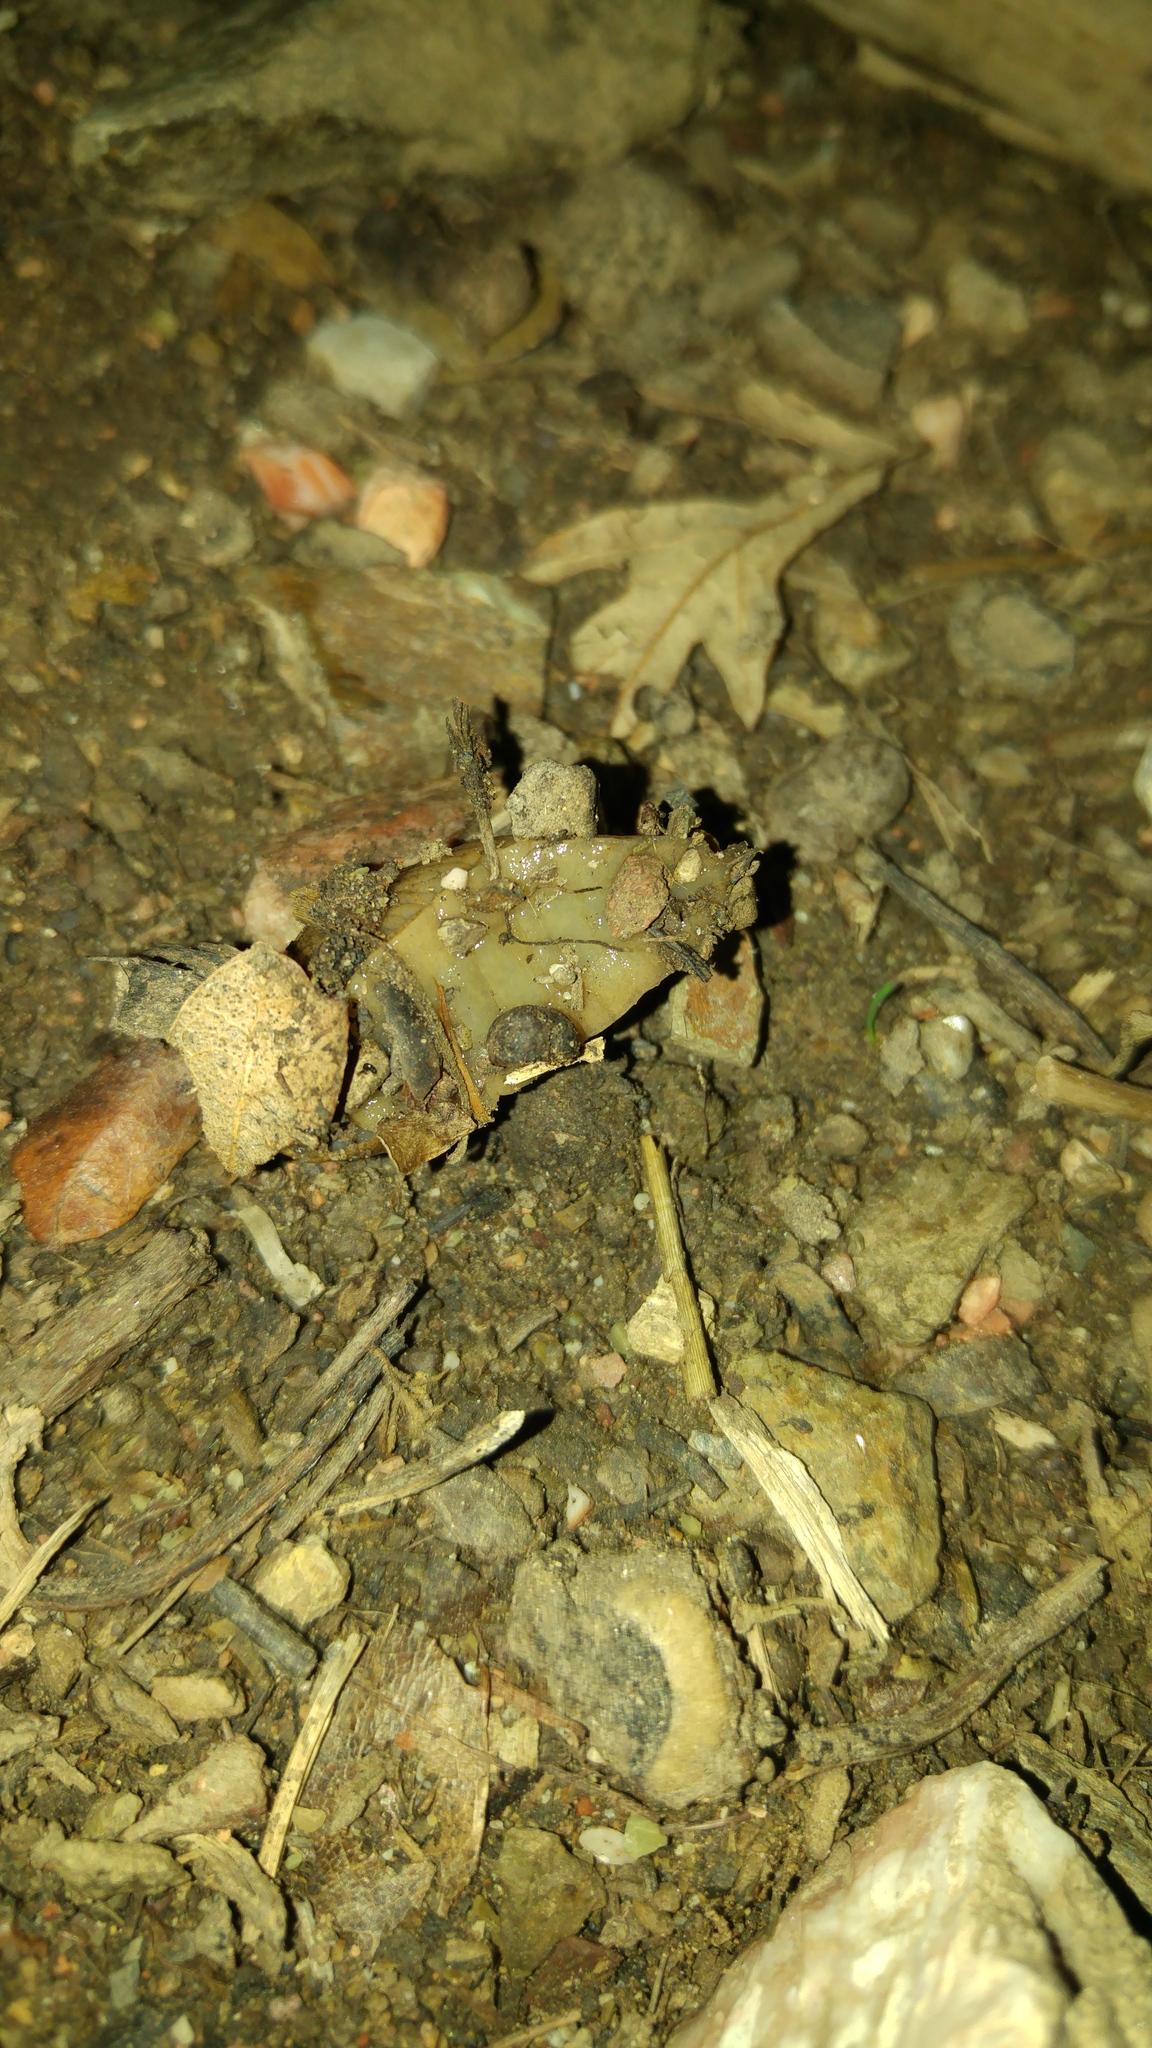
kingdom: Animalia
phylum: Mollusca
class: Gastropoda
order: Stylommatophora
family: Milacidae
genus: Tandonia
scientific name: Tandonia sowerbyi
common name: Keeled slug
